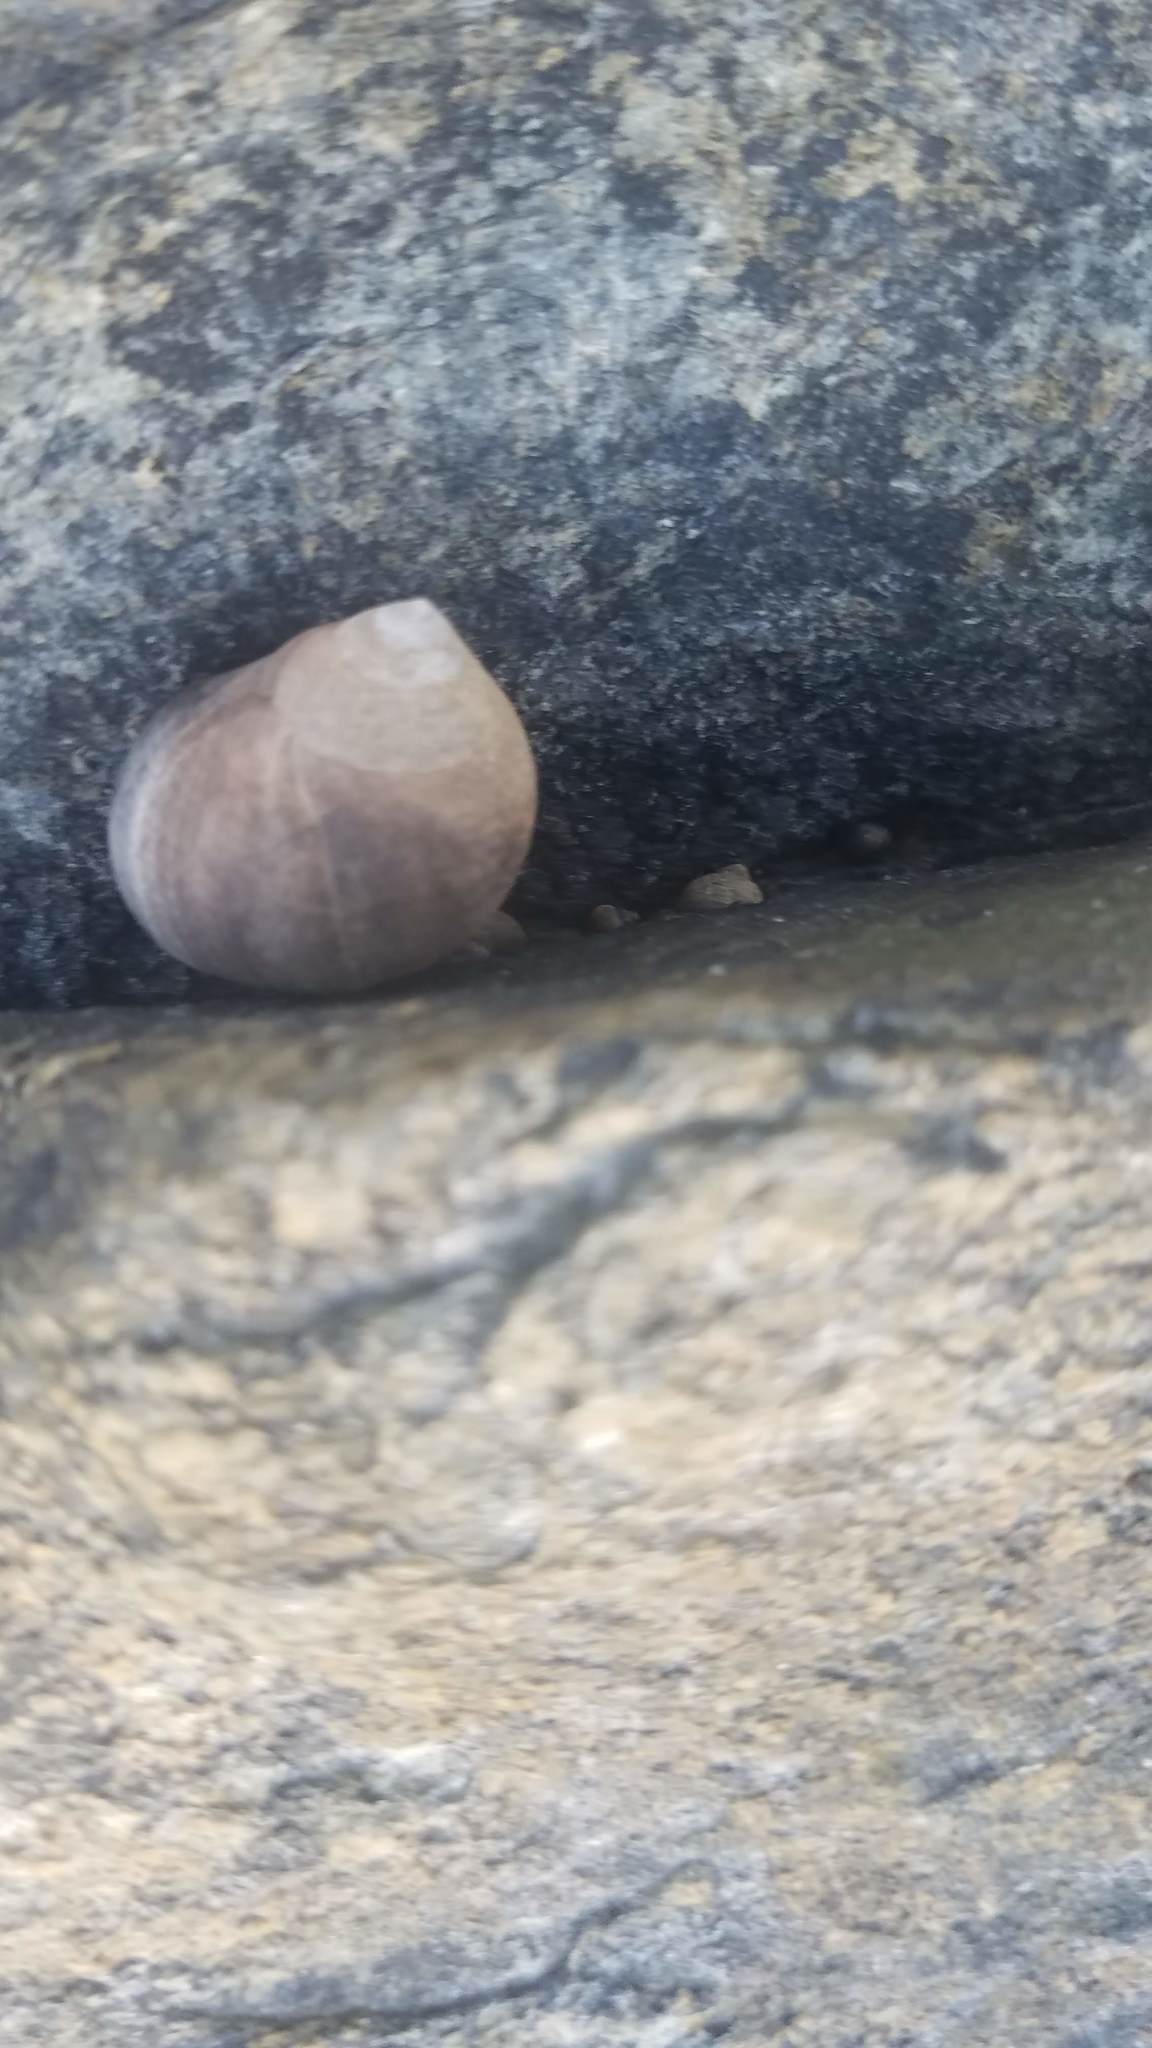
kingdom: Animalia
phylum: Mollusca
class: Gastropoda
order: Littorinimorpha
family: Littorinidae
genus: Littorina
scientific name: Littorina littorea
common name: Common periwinkle
